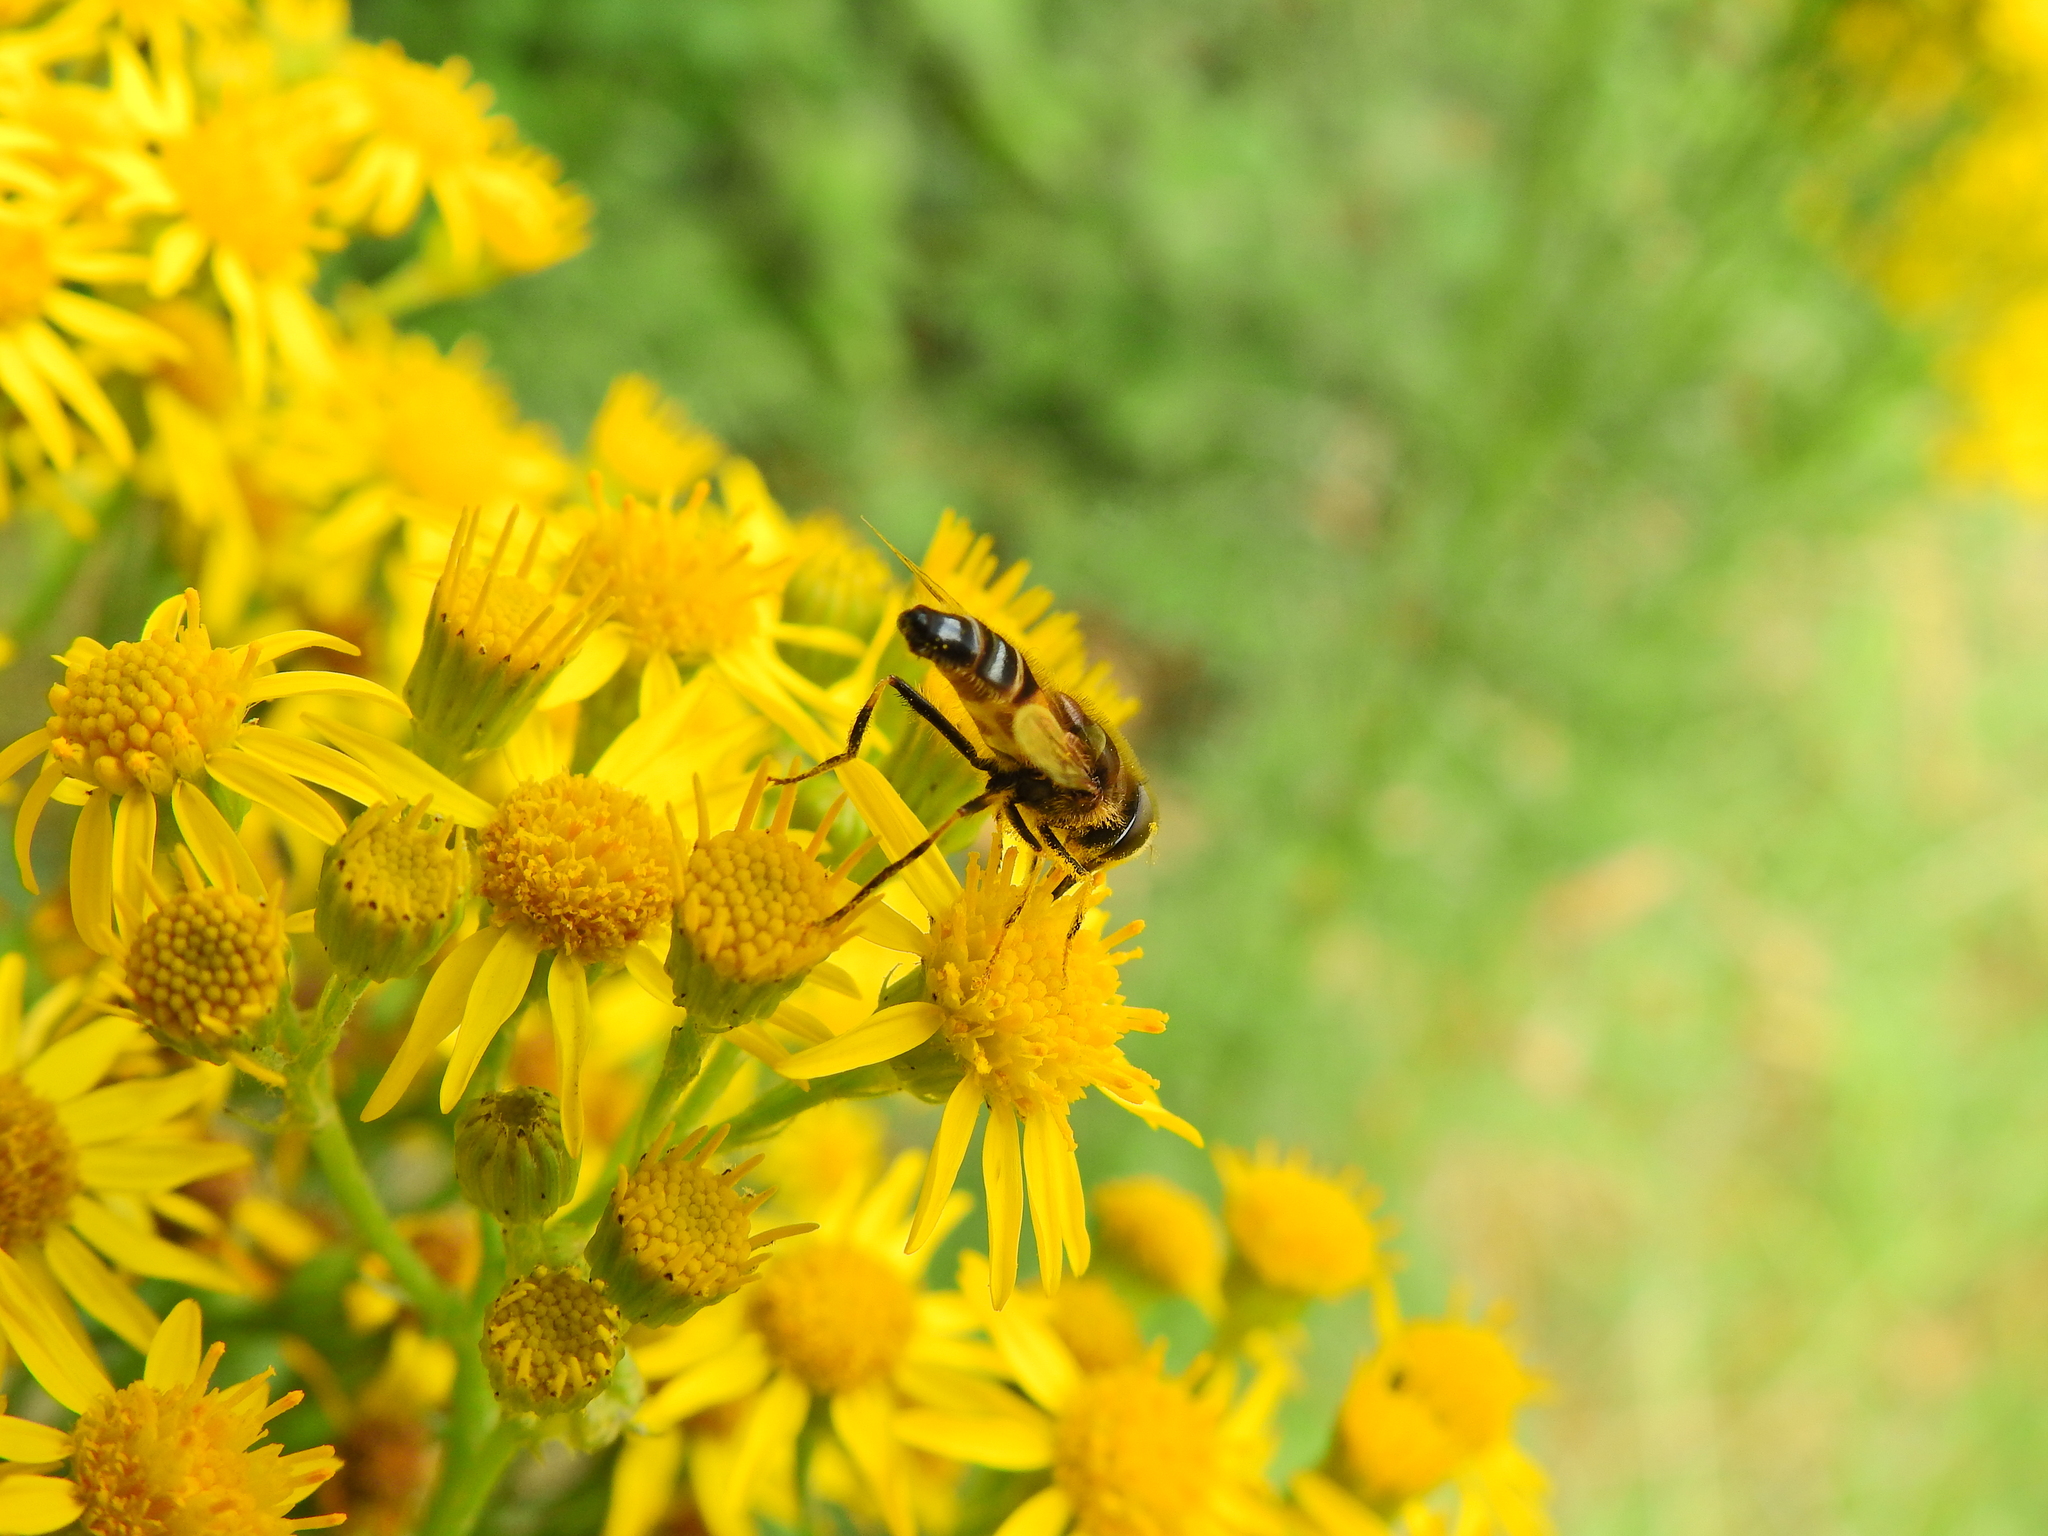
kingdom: Animalia
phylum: Arthropoda
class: Insecta
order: Diptera
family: Syrphidae
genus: Eristalis
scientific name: Eristalis pertinax
